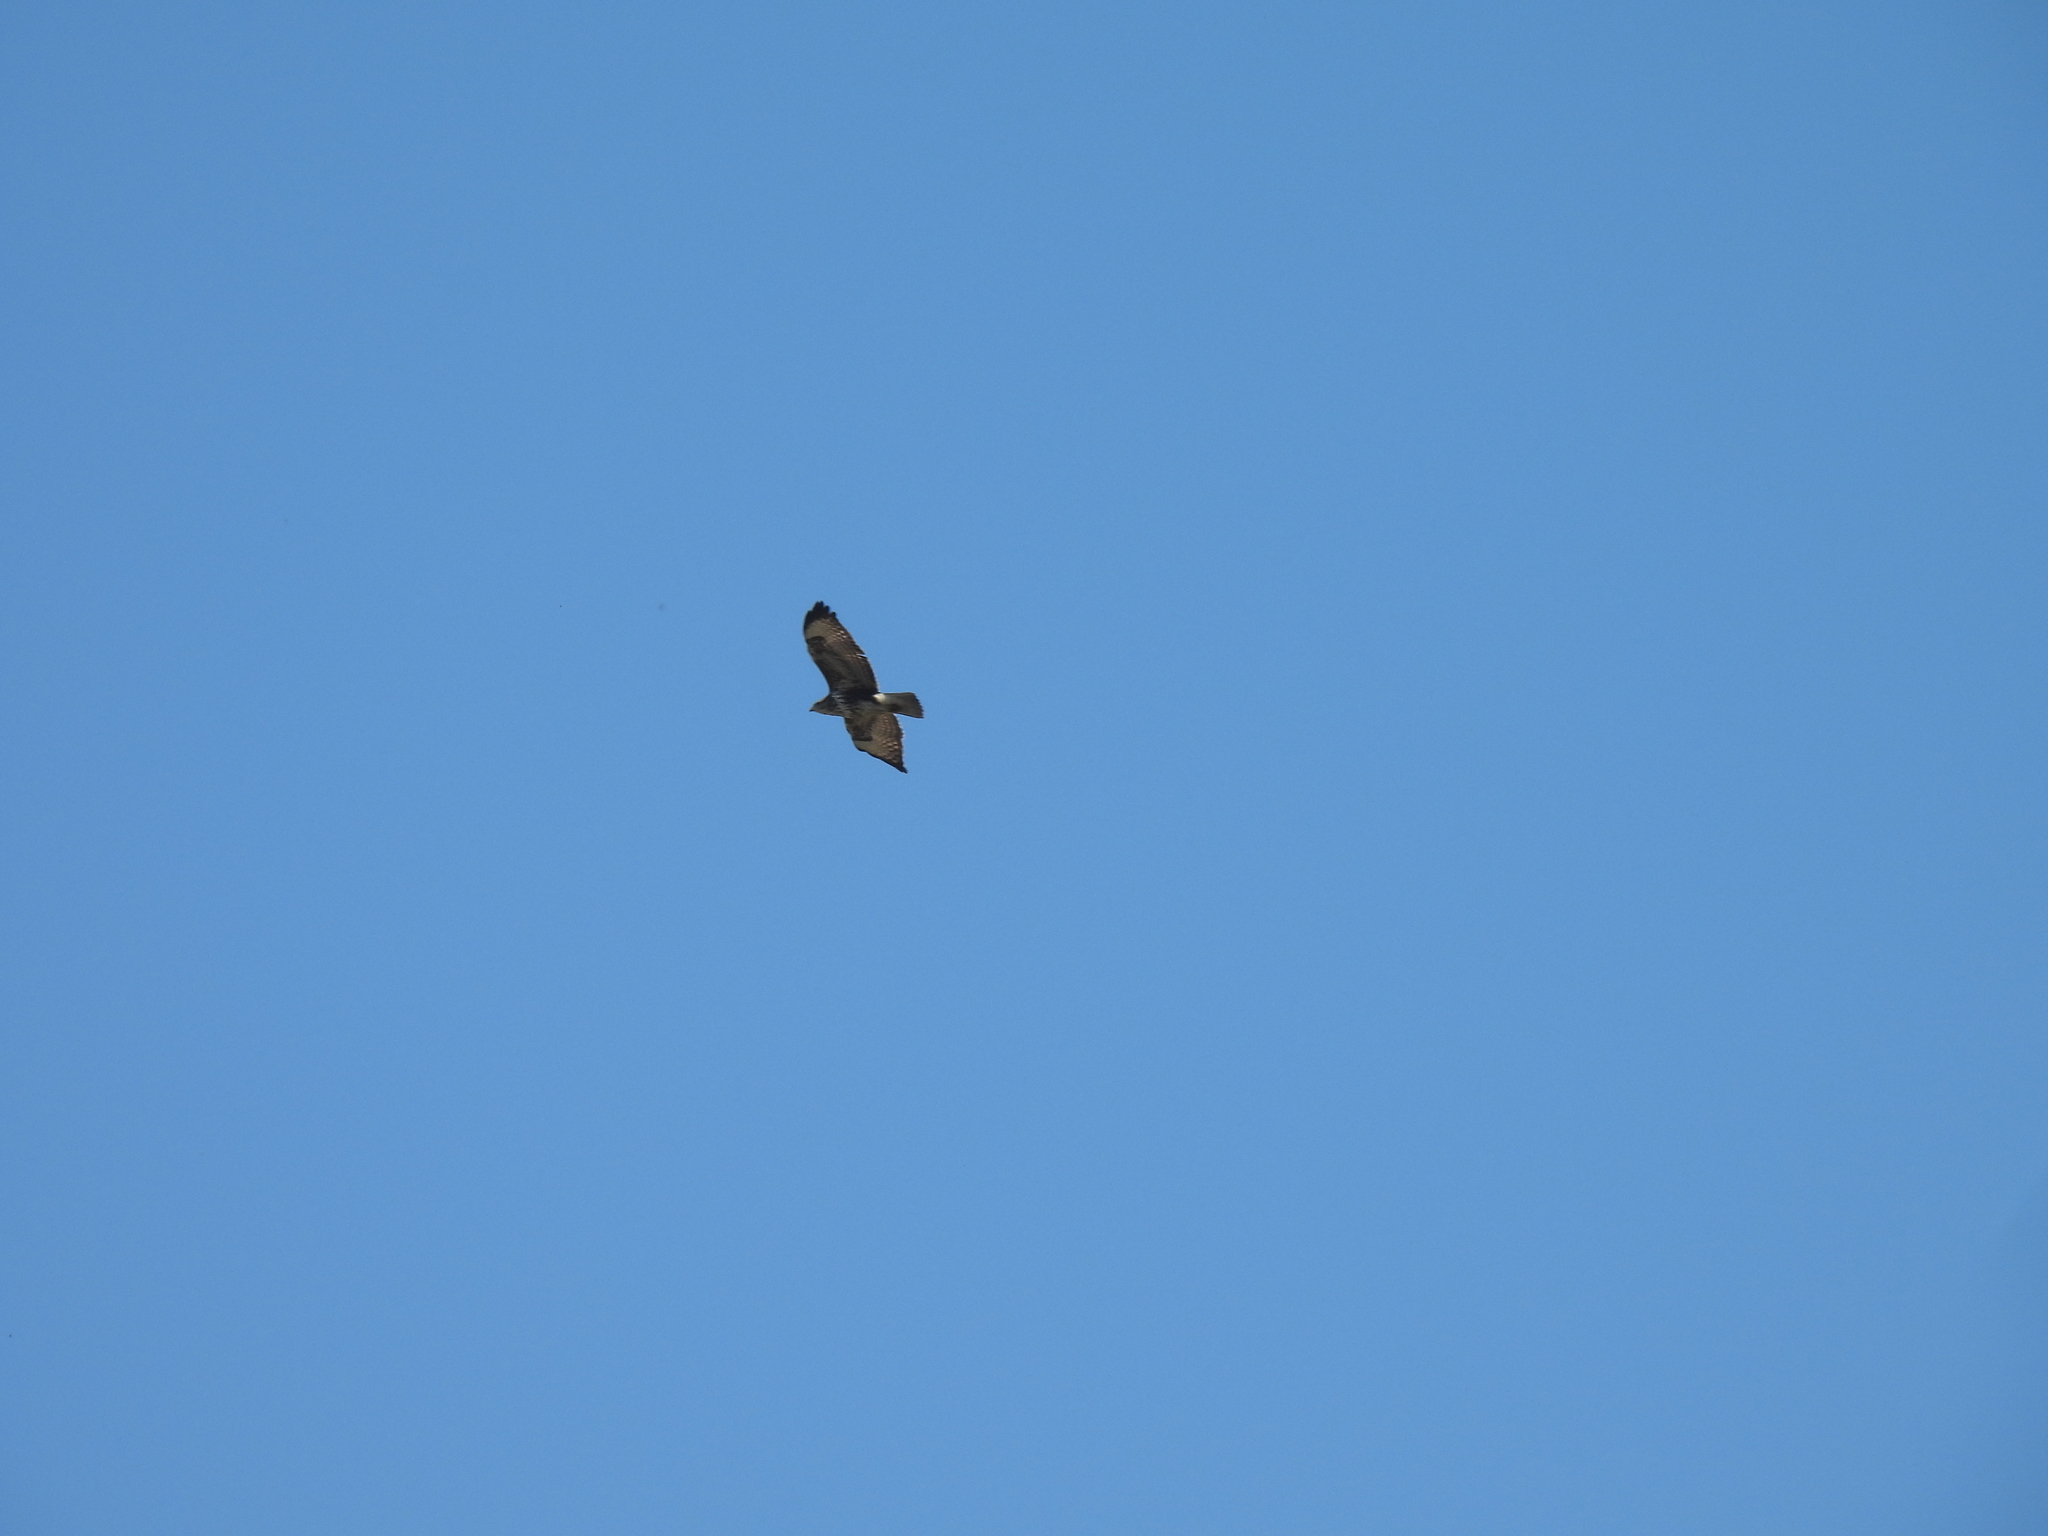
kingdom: Animalia
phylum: Chordata
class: Aves
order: Accipitriformes
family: Accipitridae
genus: Buteo
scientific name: Buteo buteo
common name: Common buzzard
